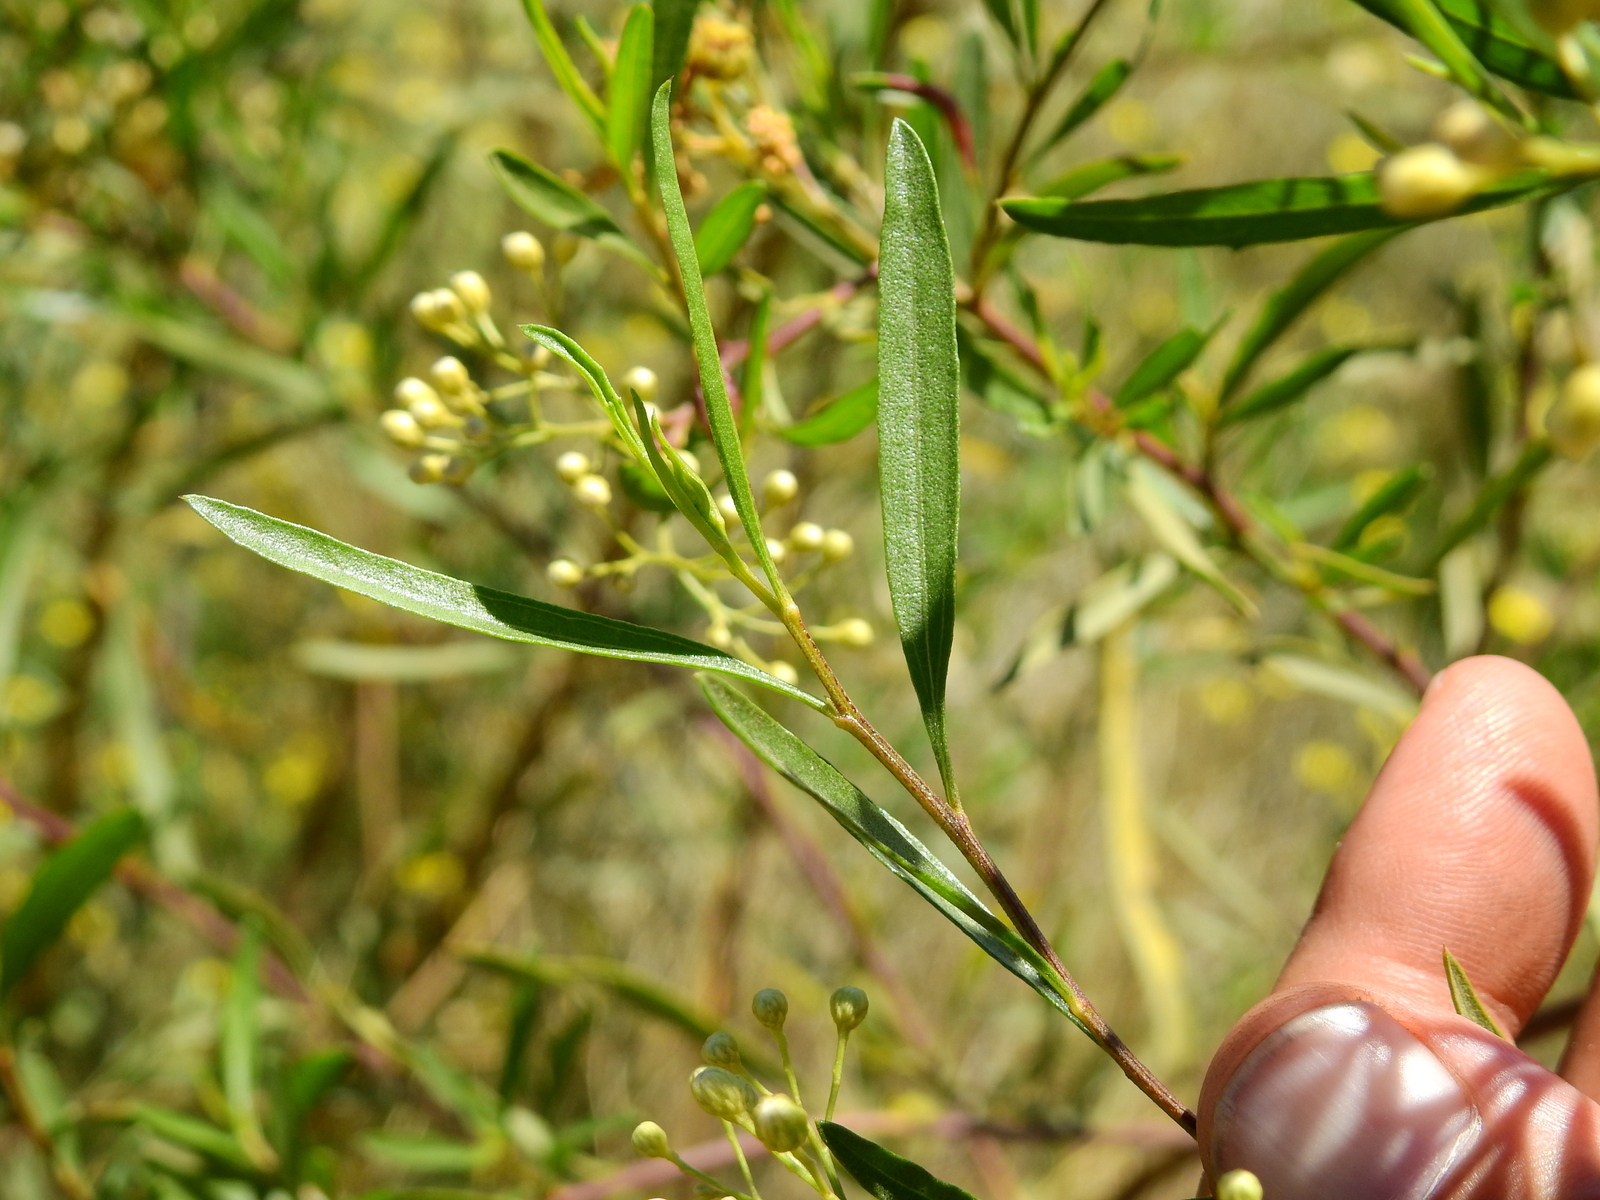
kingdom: Plantae
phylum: Tracheophyta
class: Magnoliopsida
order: Asterales
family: Asteraceae
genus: Baccharis
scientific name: Baccharis salicifolia
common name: Sticky baccharis
